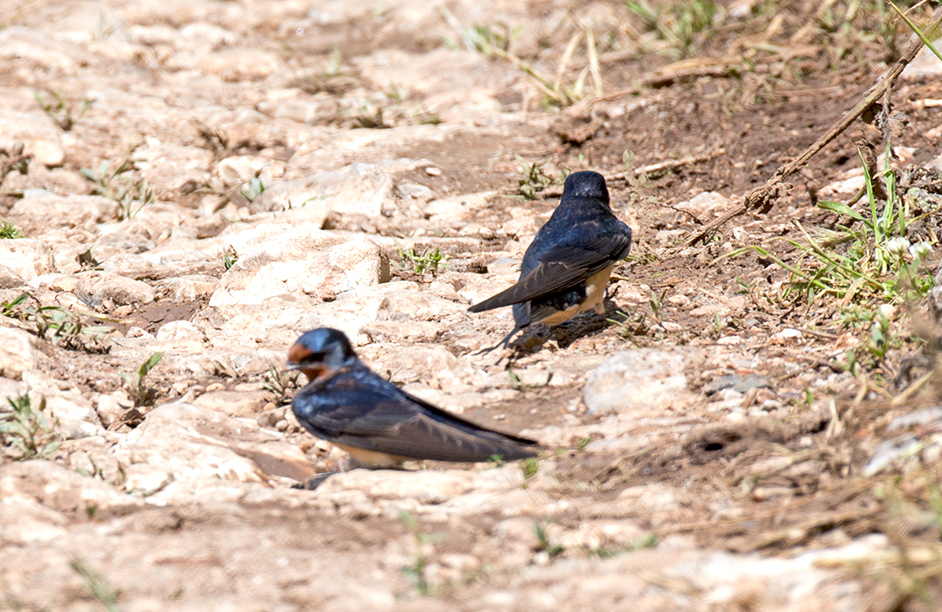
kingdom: Animalia
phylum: Chordata
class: Aves
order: Passeriformes
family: Hirundinidae
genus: Hirundo
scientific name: Hirundo rustica
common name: Barn swallow
